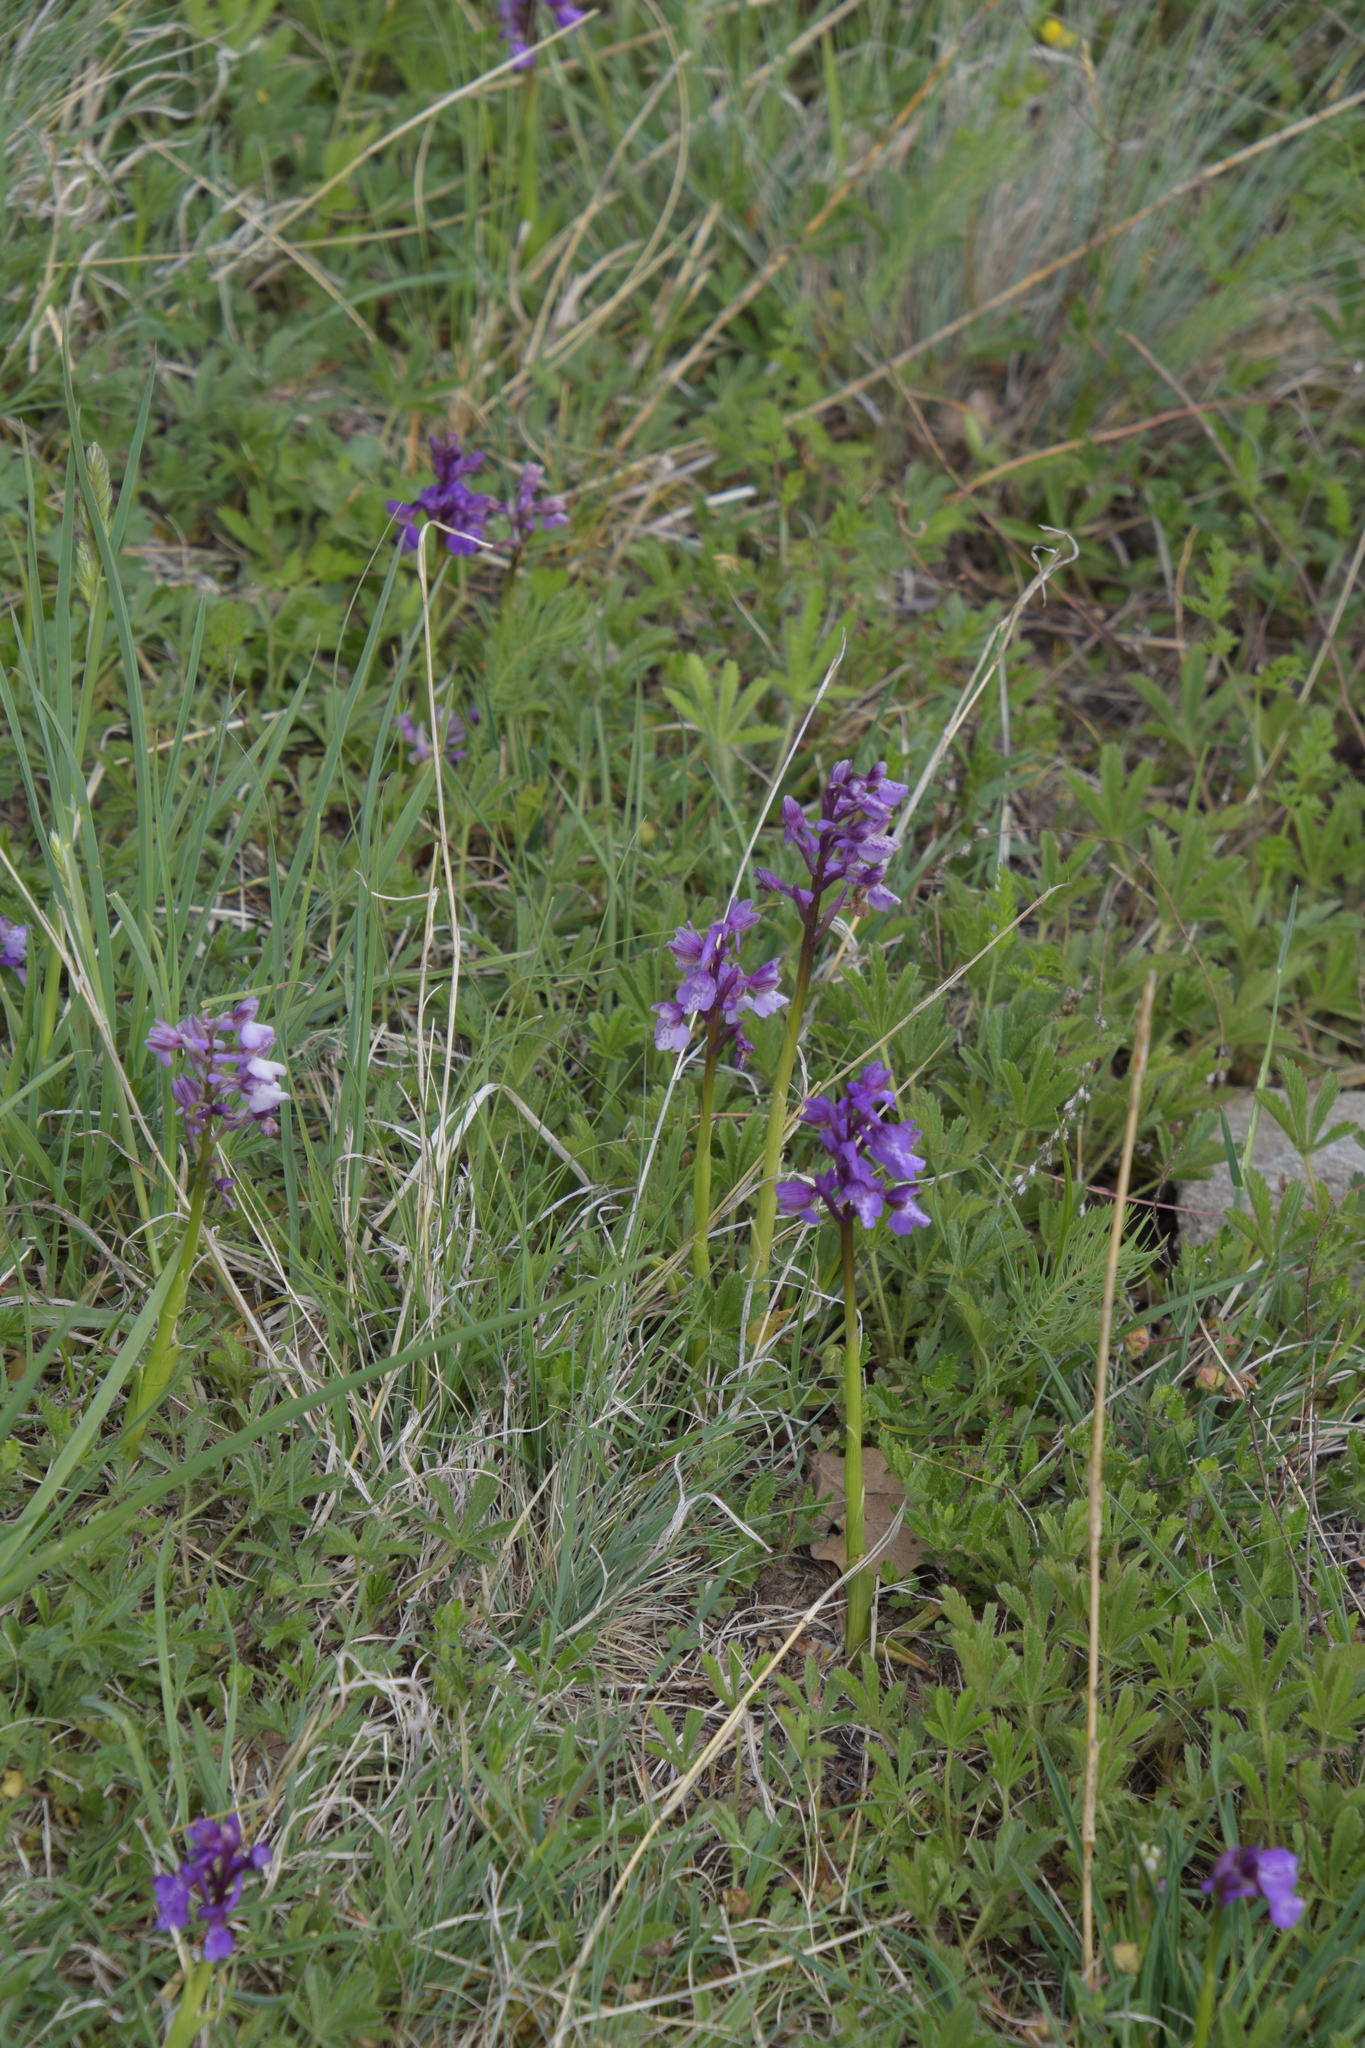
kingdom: Plantae
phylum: Tracheophyta
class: Liliopsida
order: Asparagales
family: Orchidaceae
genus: Anacamptis
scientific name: Anacamptis morio
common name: Green-winged orchid
